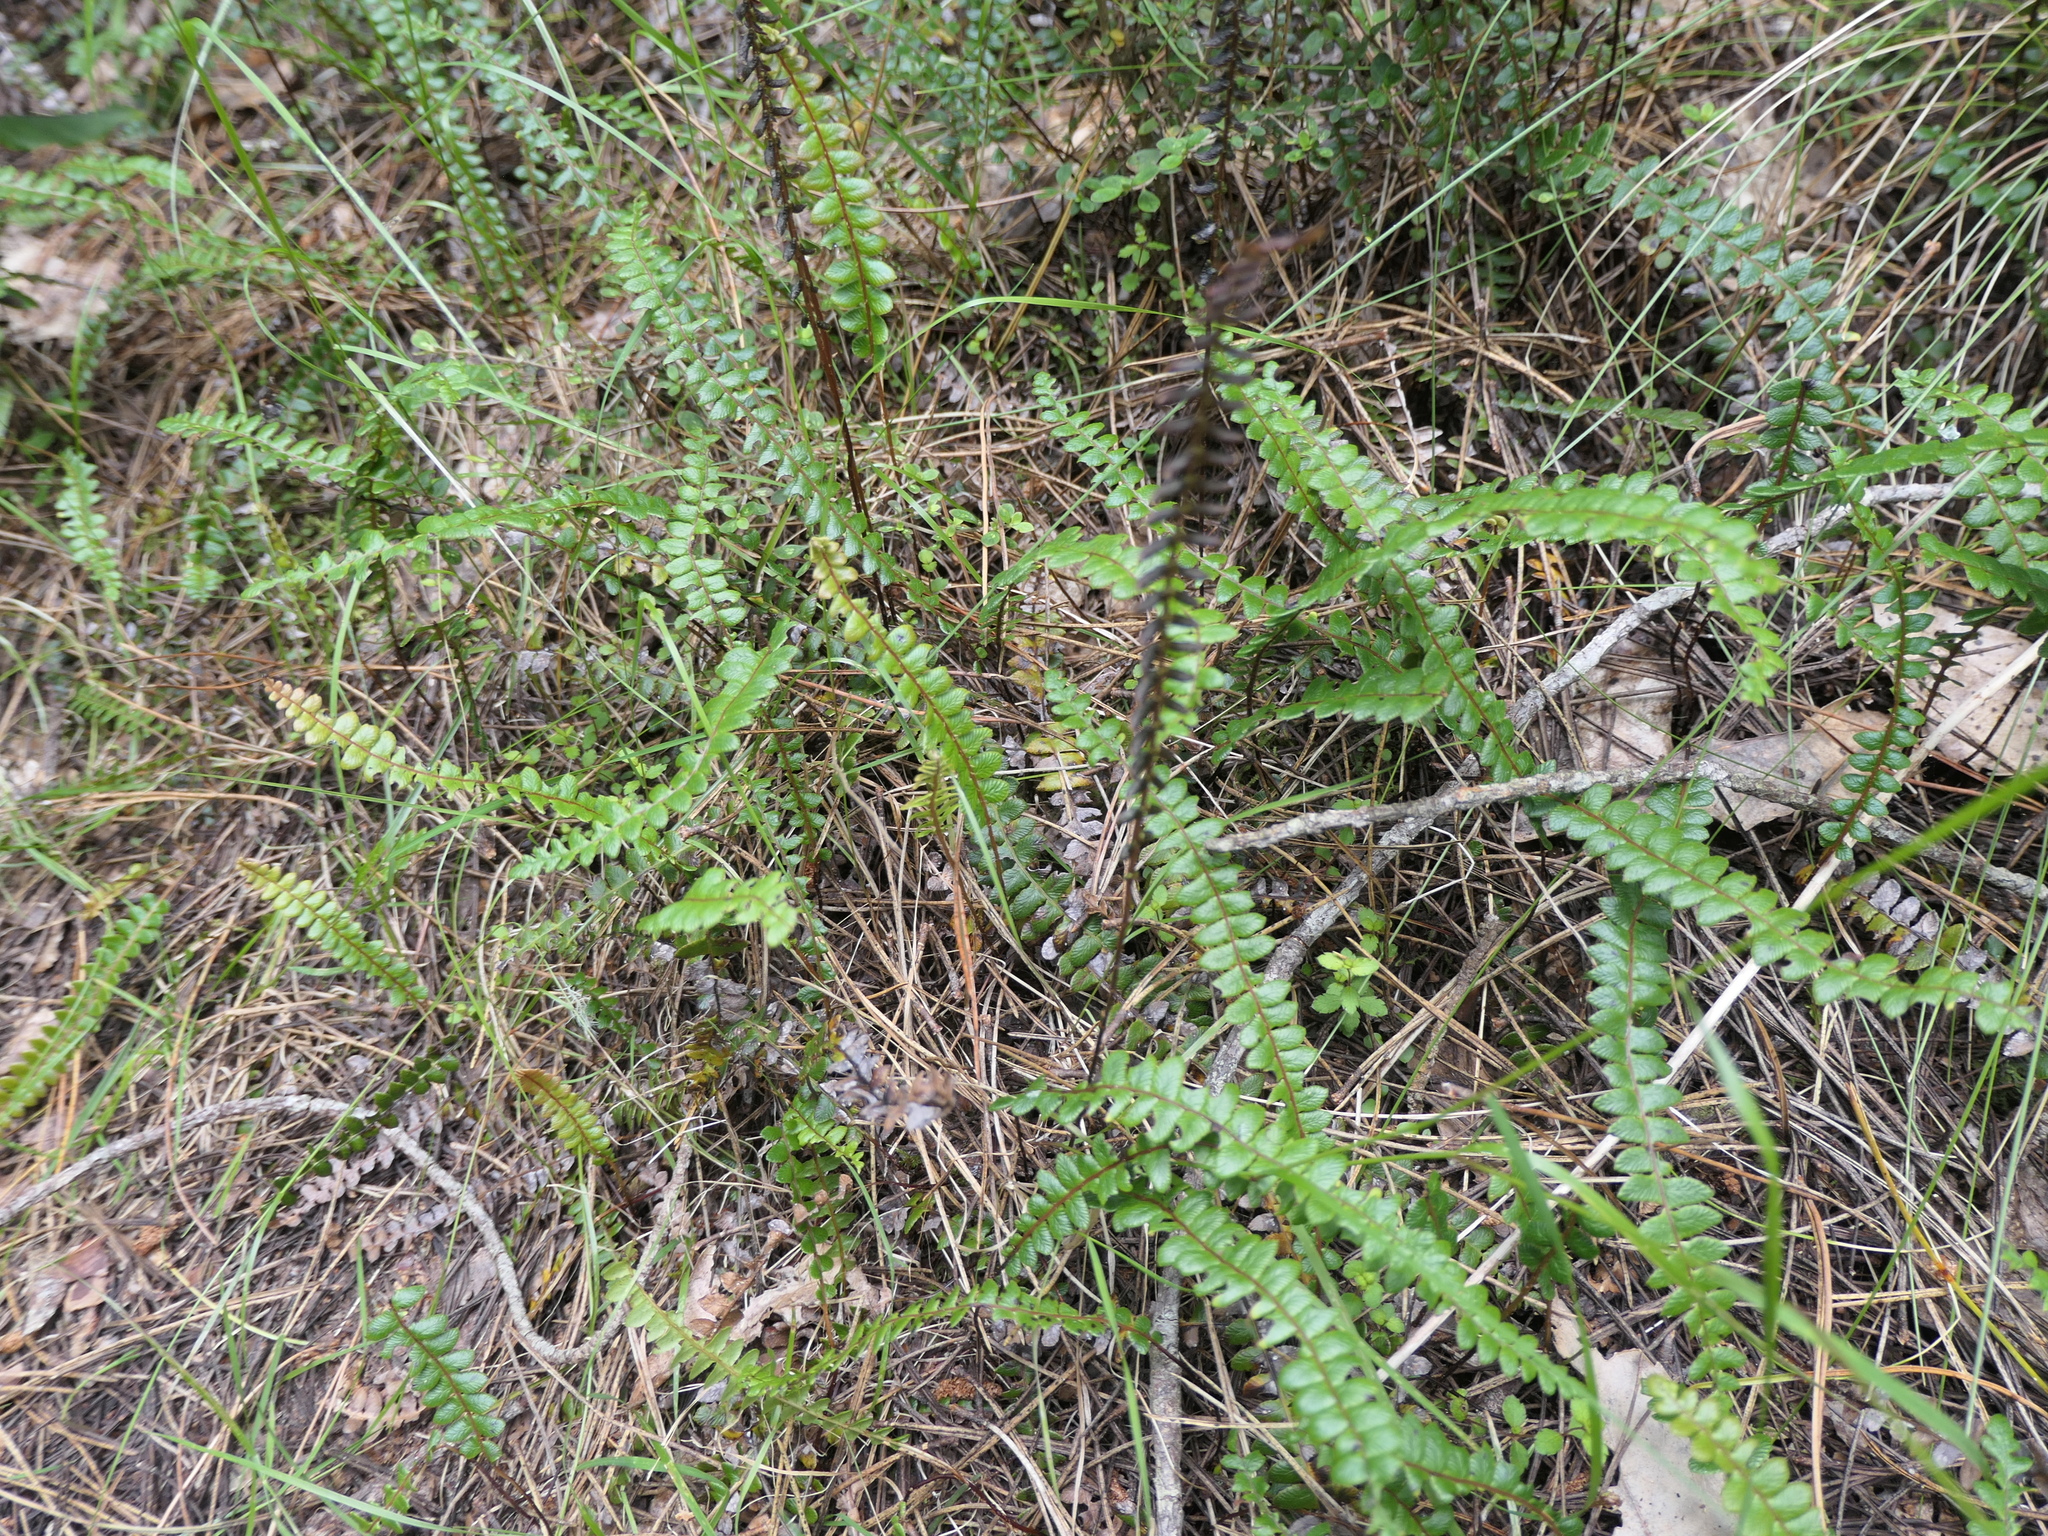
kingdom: Plantae
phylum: Tracheophyta
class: Polypodiopsida
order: Polypodiales
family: Blechnaceae
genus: Austroblechnum
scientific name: Austroblechnum penna-marina
